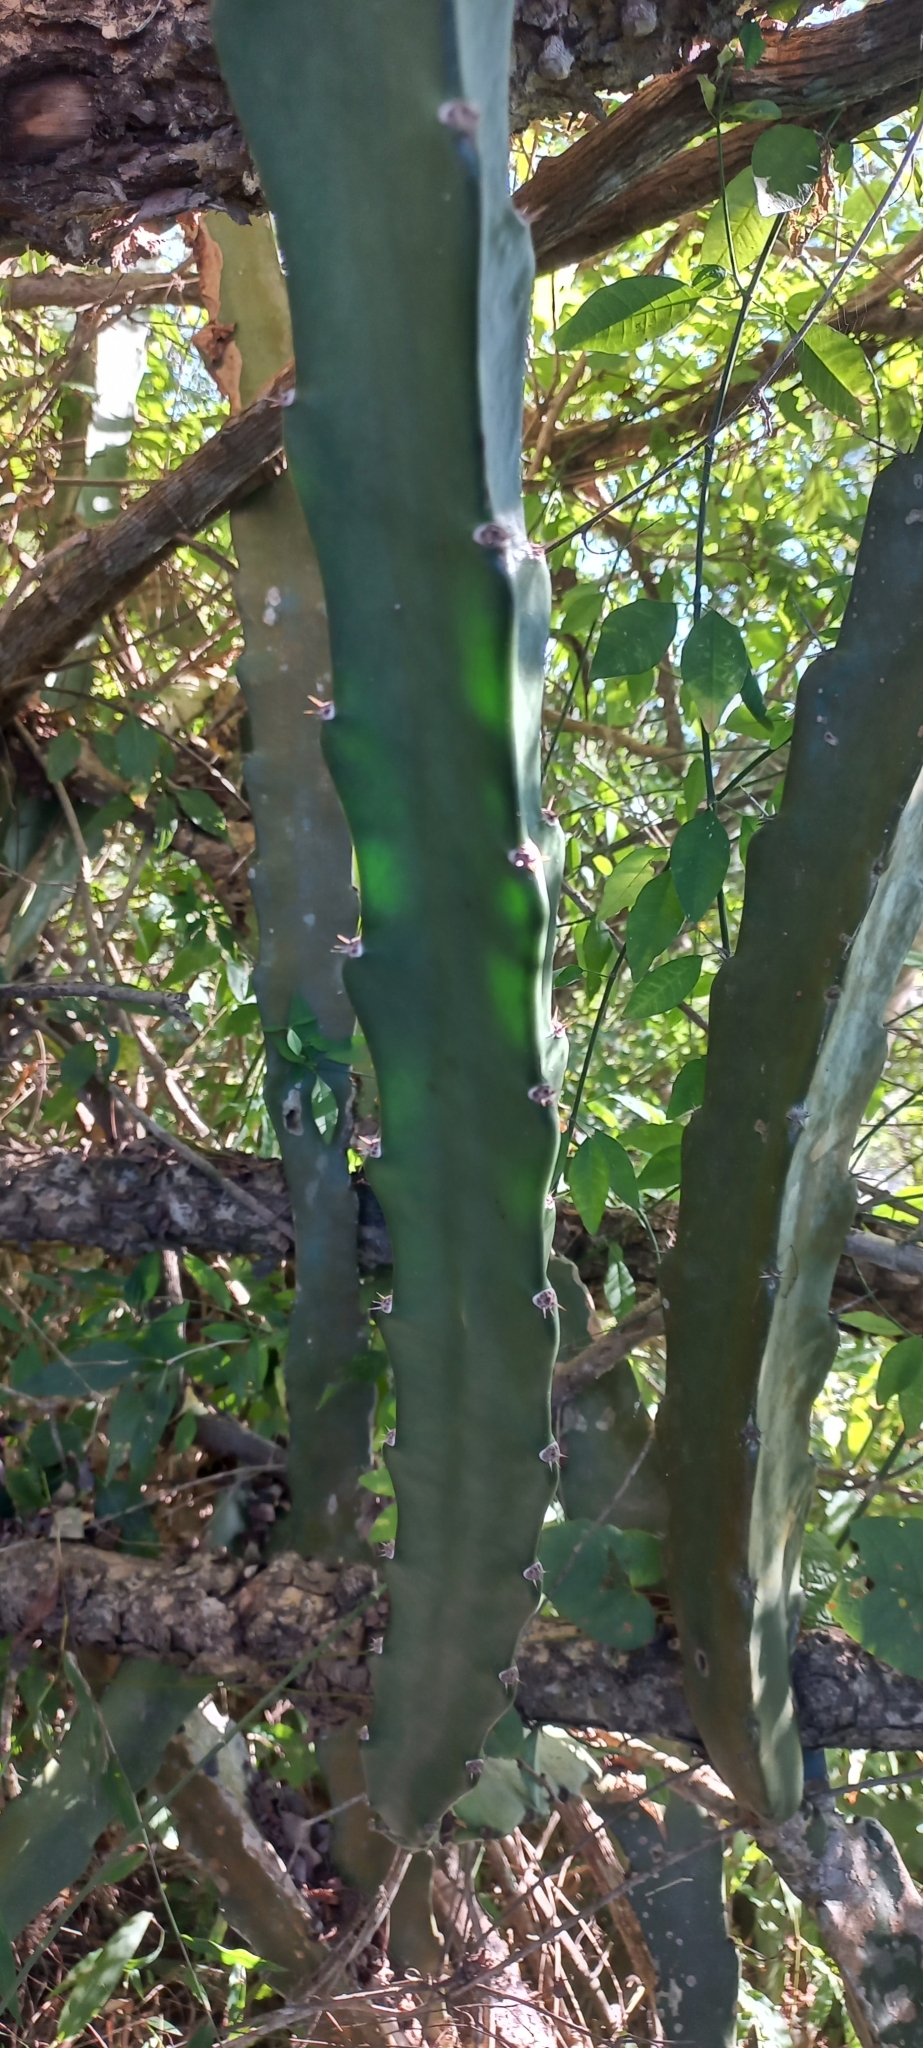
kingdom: Plantae
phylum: Tracheophyta
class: Magnoliopsida
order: Caryophyllales
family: Cactaceae
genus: Acanthocereus
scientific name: Acanthocereus tetragonus
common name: Triangle cactus
